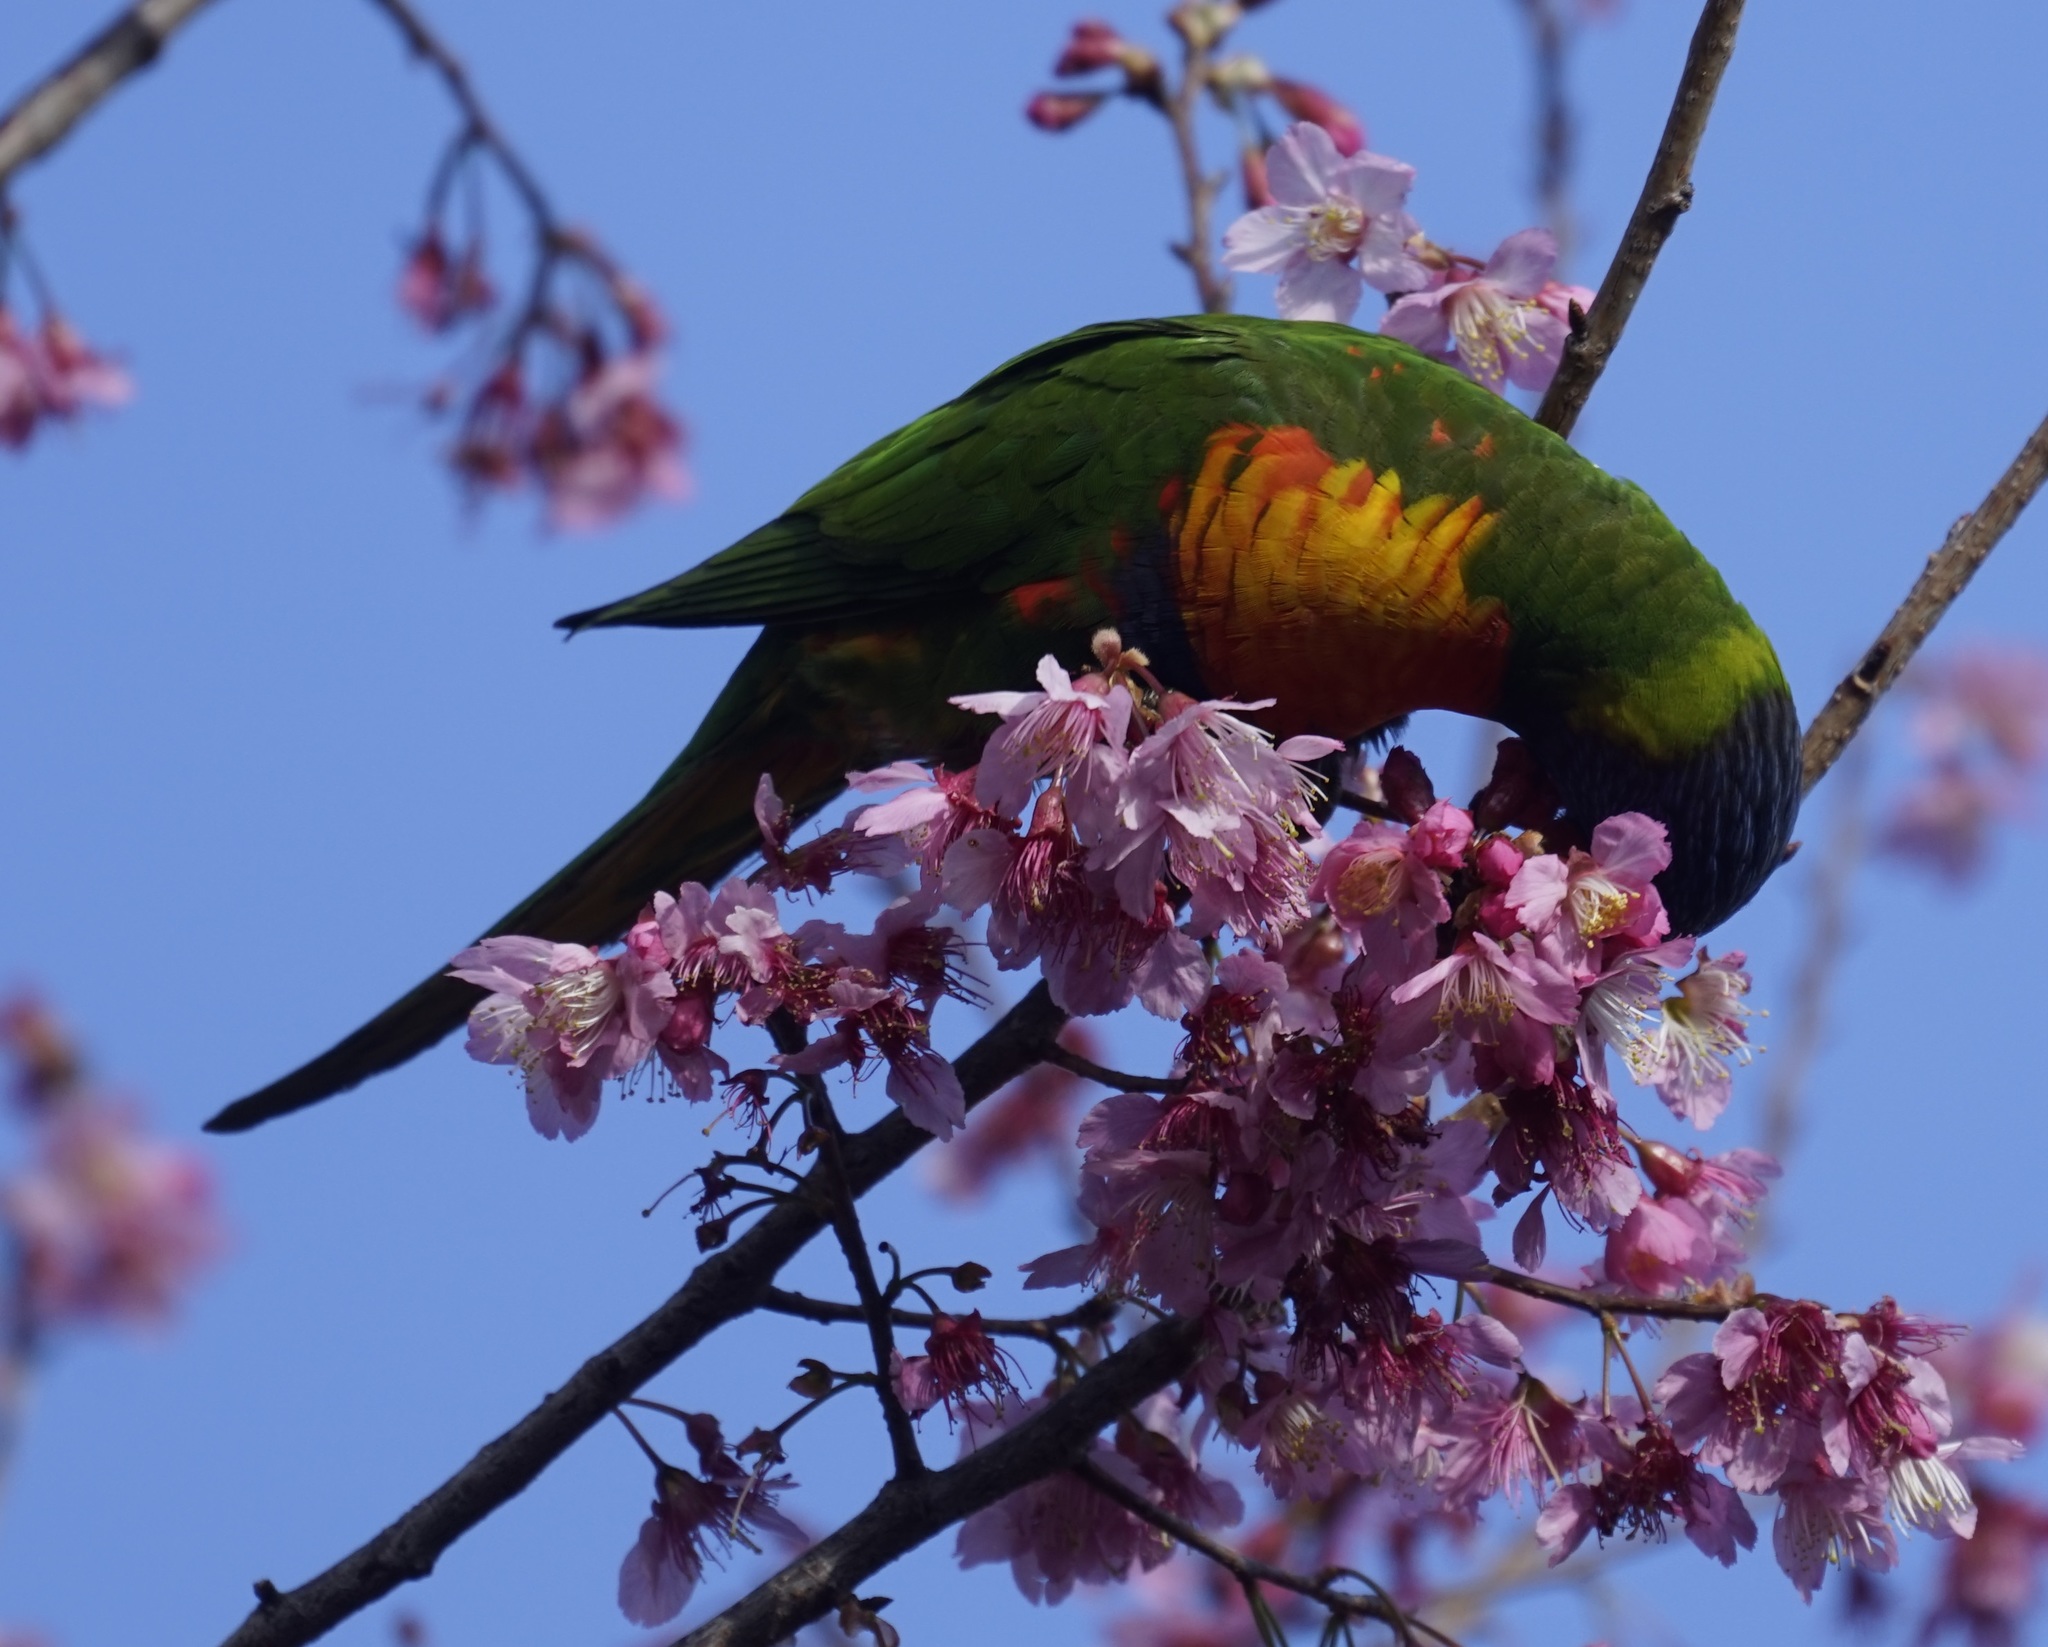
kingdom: Animalia
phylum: Chordata
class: Aves
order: Psittaciformes
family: Psittacidae
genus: Trichoglossus
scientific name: Trichoglossus haematodus
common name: Coconut lorikeet
